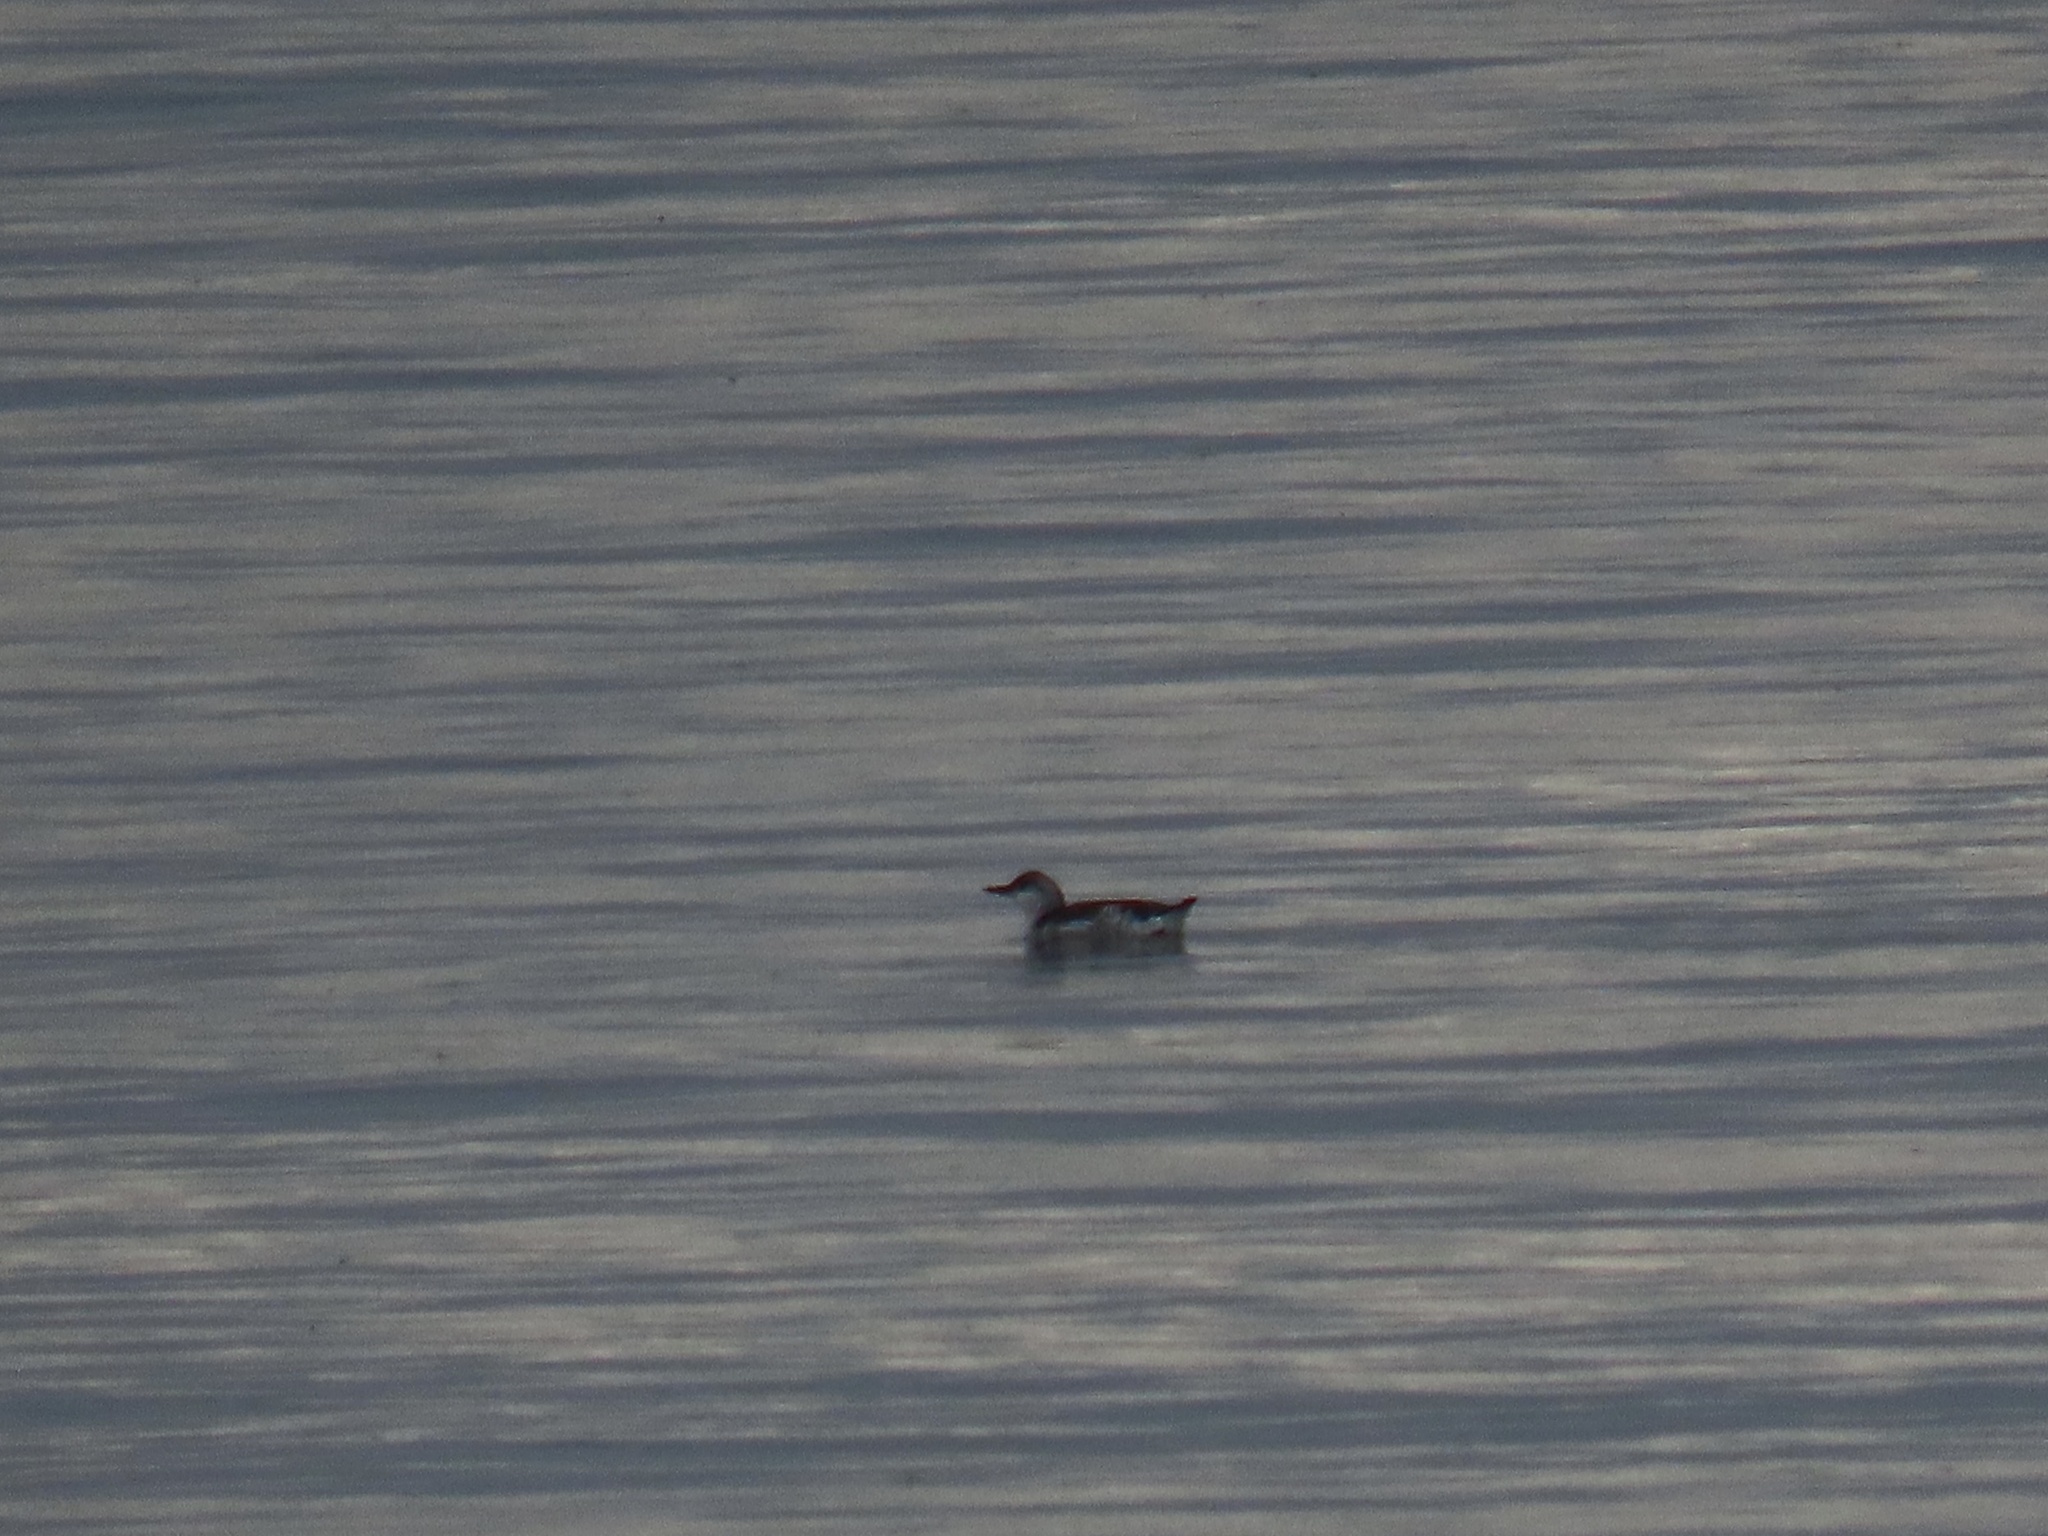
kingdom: Animalia
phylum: Chordata
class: Aves
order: Charadriiformes
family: Alcidae
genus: Uria
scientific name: Uria aalge
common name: Common murre
